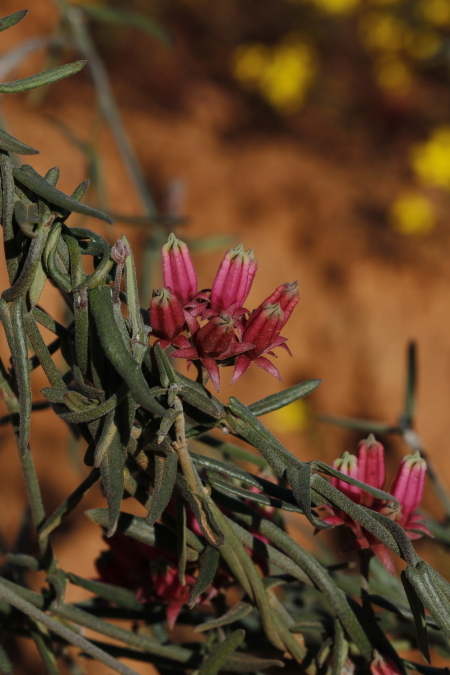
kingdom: Plantae
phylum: Tracheophyta
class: Magnoliopsida
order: Gentianales
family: Apocynaceae
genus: Microloma
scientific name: Microloma sagittatum
